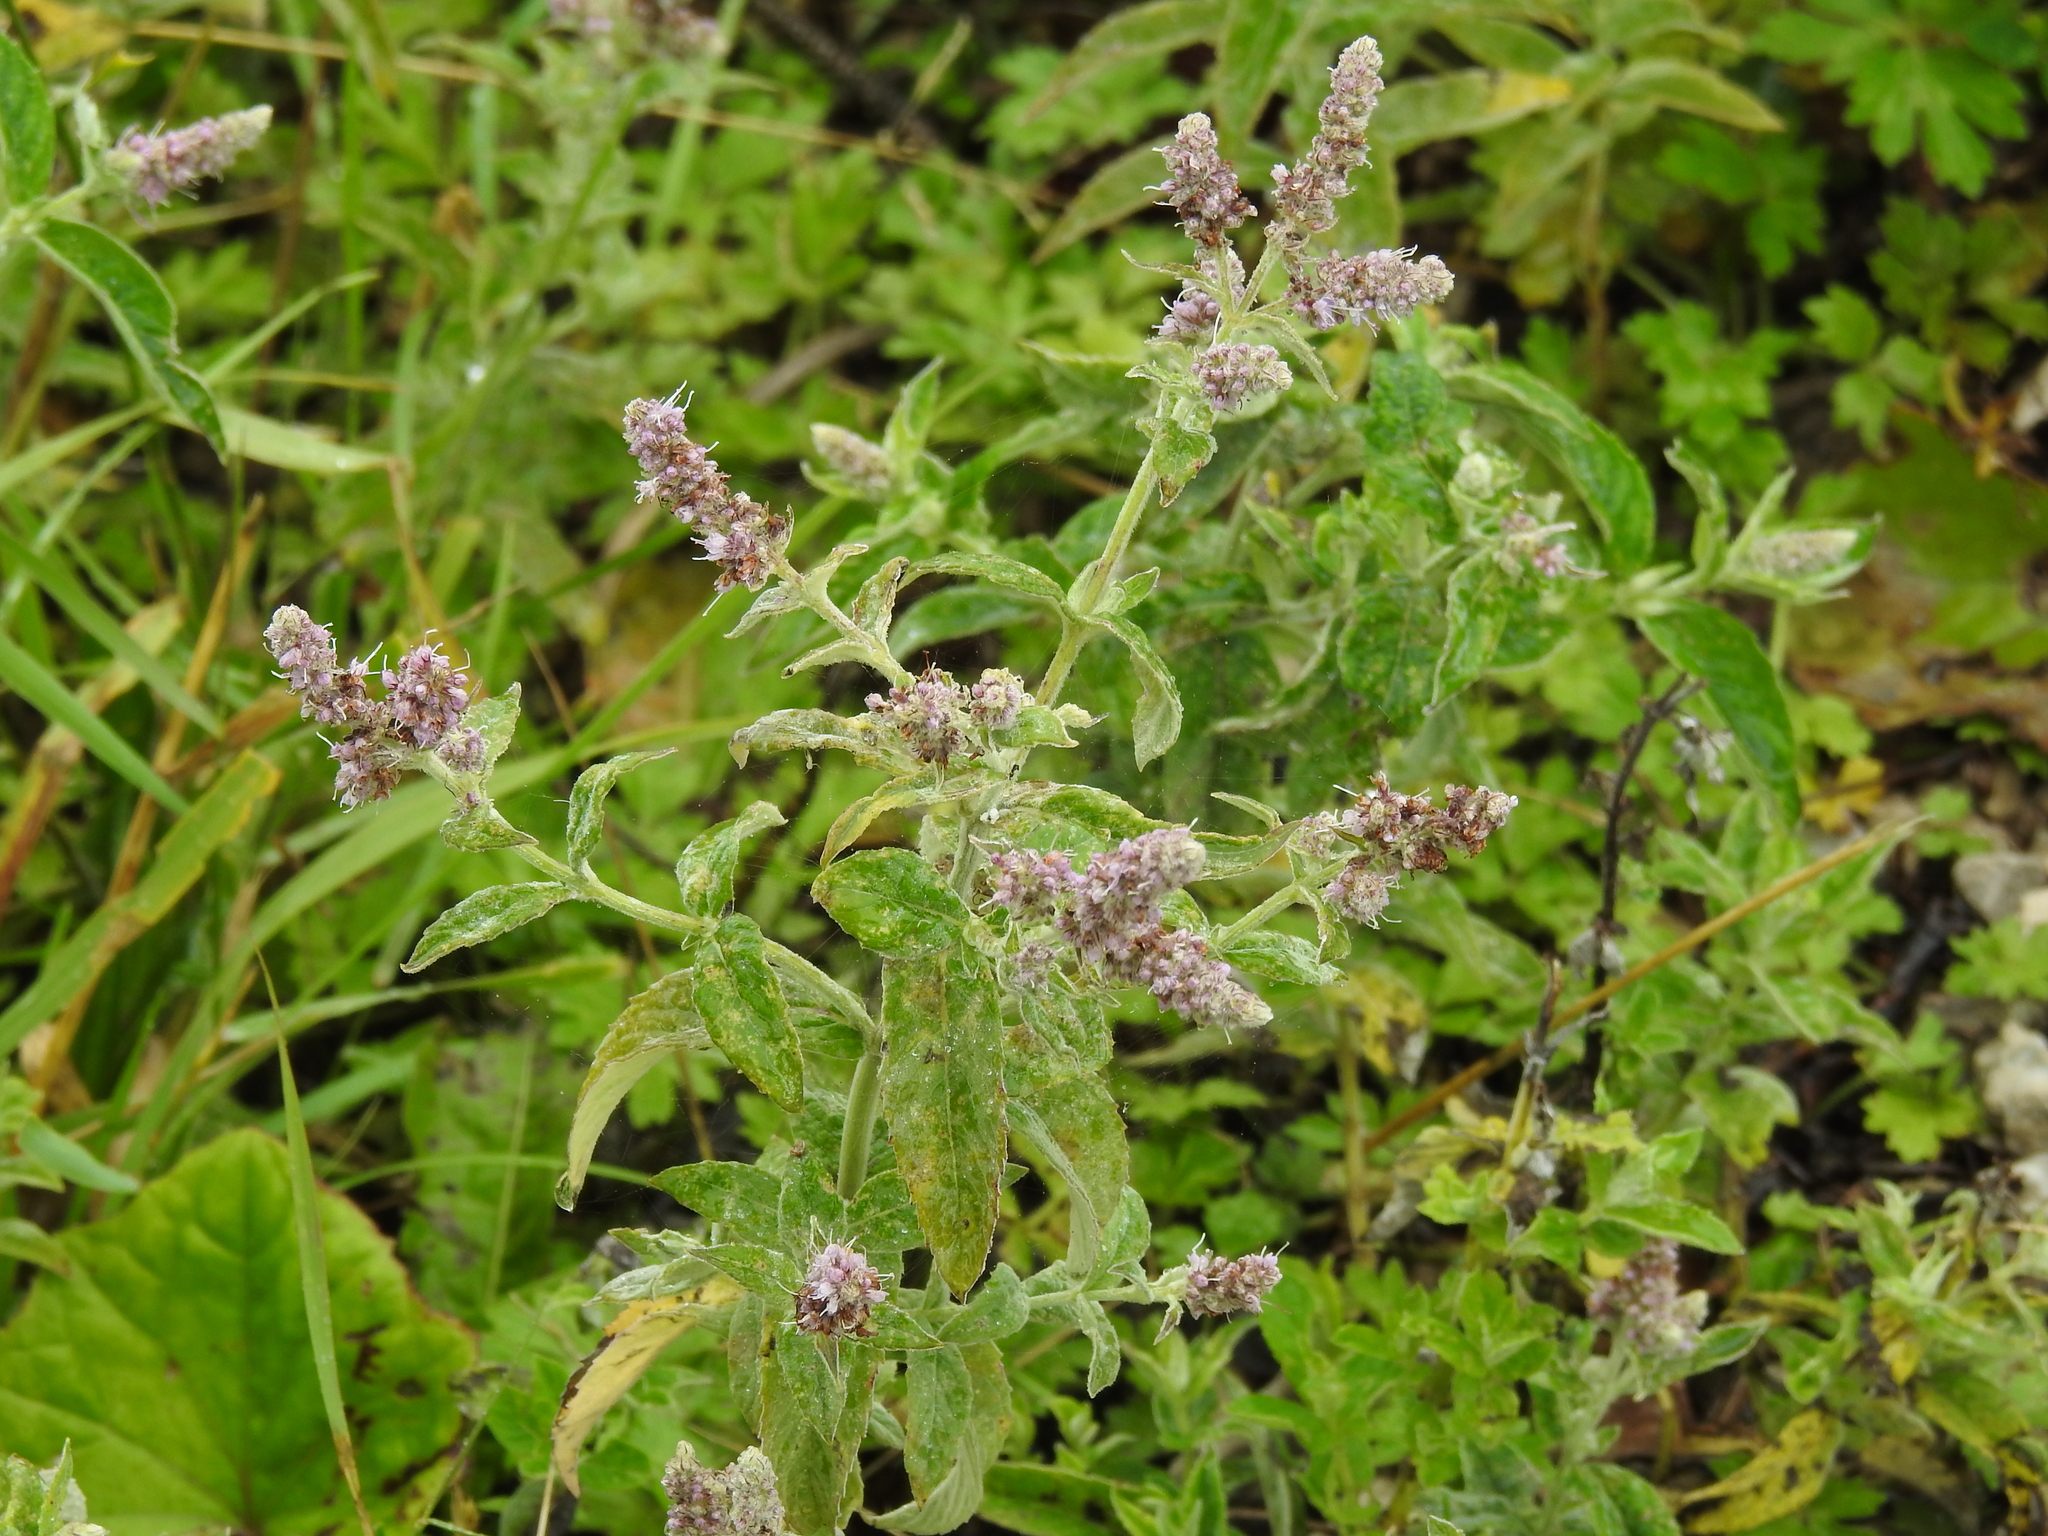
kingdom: Plantae
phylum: Tracheophyta
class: Magnoliopsida
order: Lamiales
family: Lamiaceae
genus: Mentha
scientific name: Mentha longifolia
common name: Horse mint
